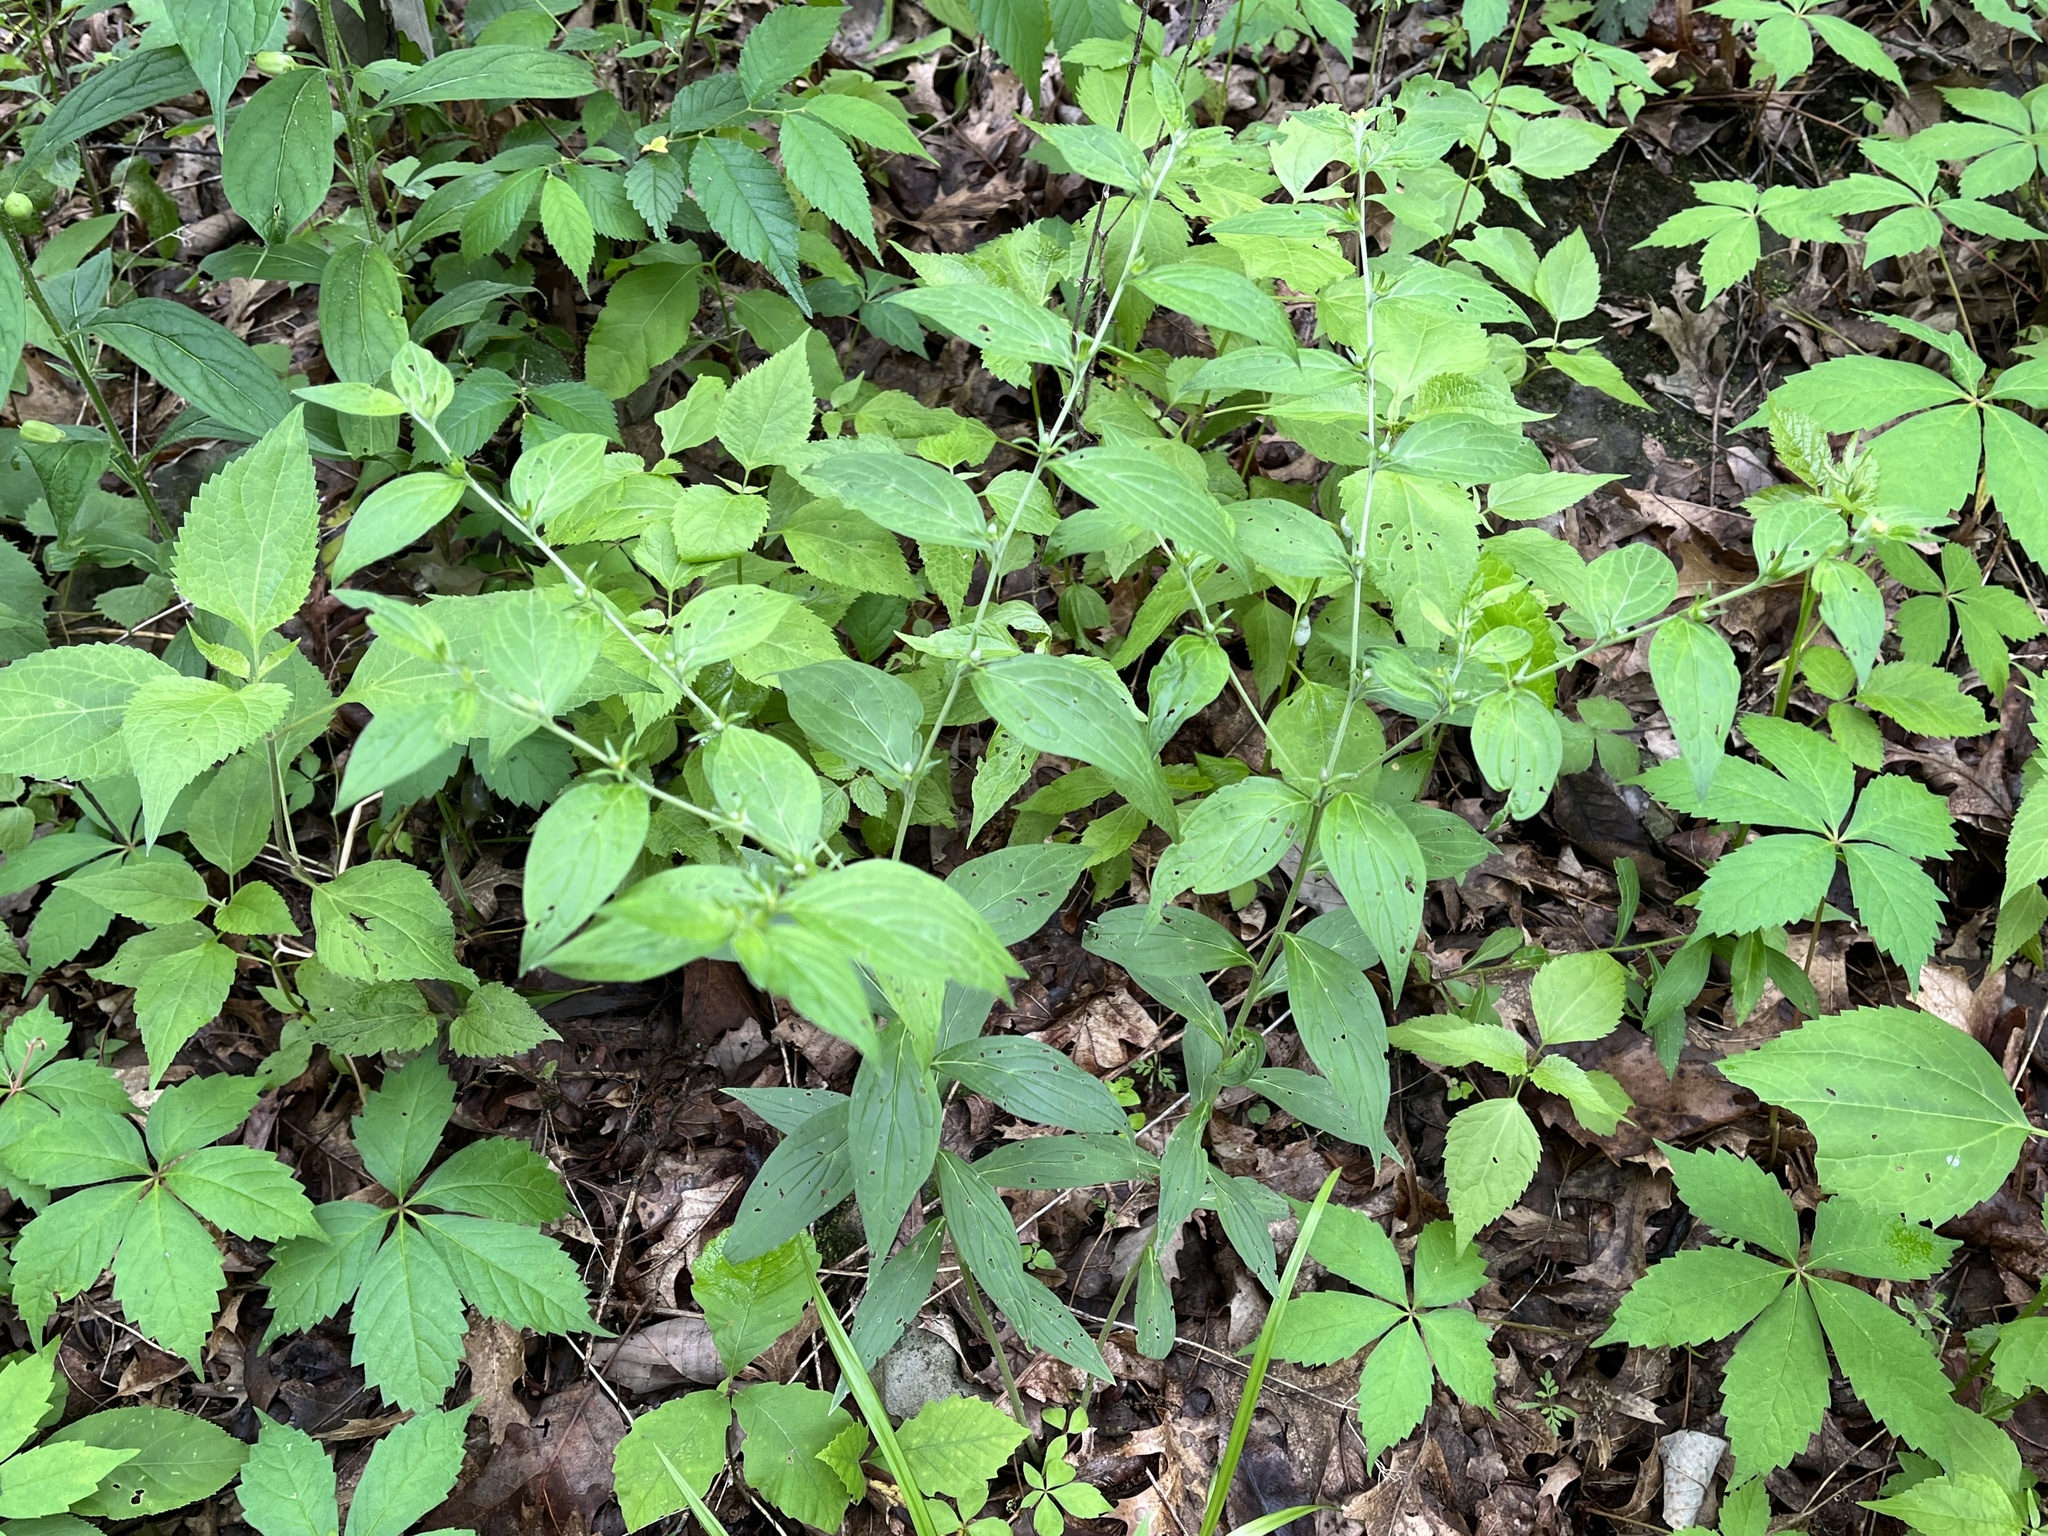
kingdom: Plantae
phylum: Tracheophyta
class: Magnoliopsida
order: Boraginales
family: Boraginaceae
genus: Lithospermum
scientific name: Lithospermum latifolium
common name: American gromwell
